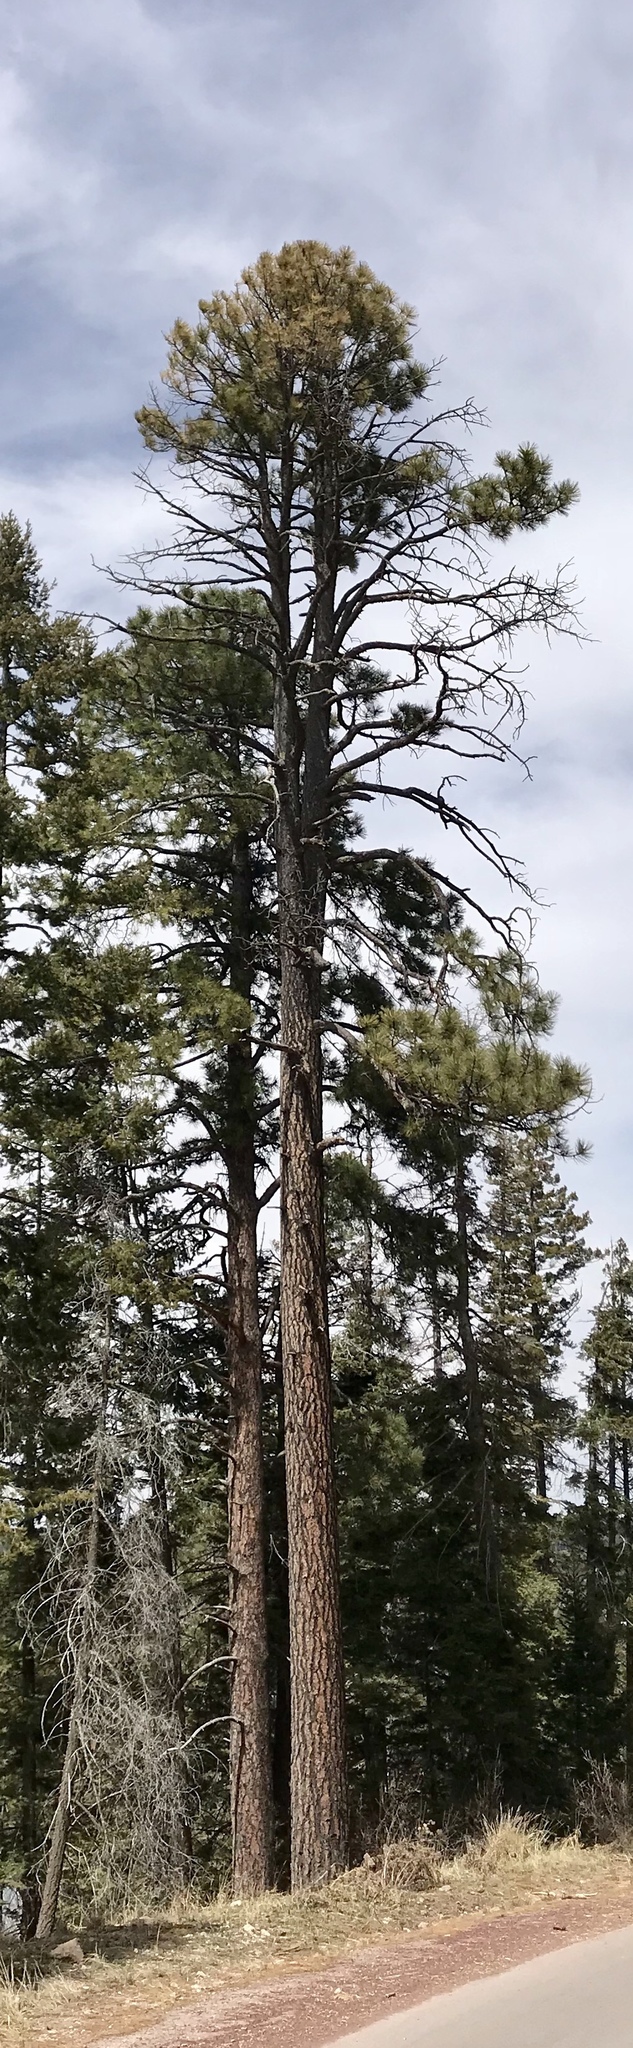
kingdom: Plantae
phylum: Tracheophyta
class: Pinopsida
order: Pinales
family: Pinaceae
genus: Pinus
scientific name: Pinus ponderosa
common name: Western yellow-pine
